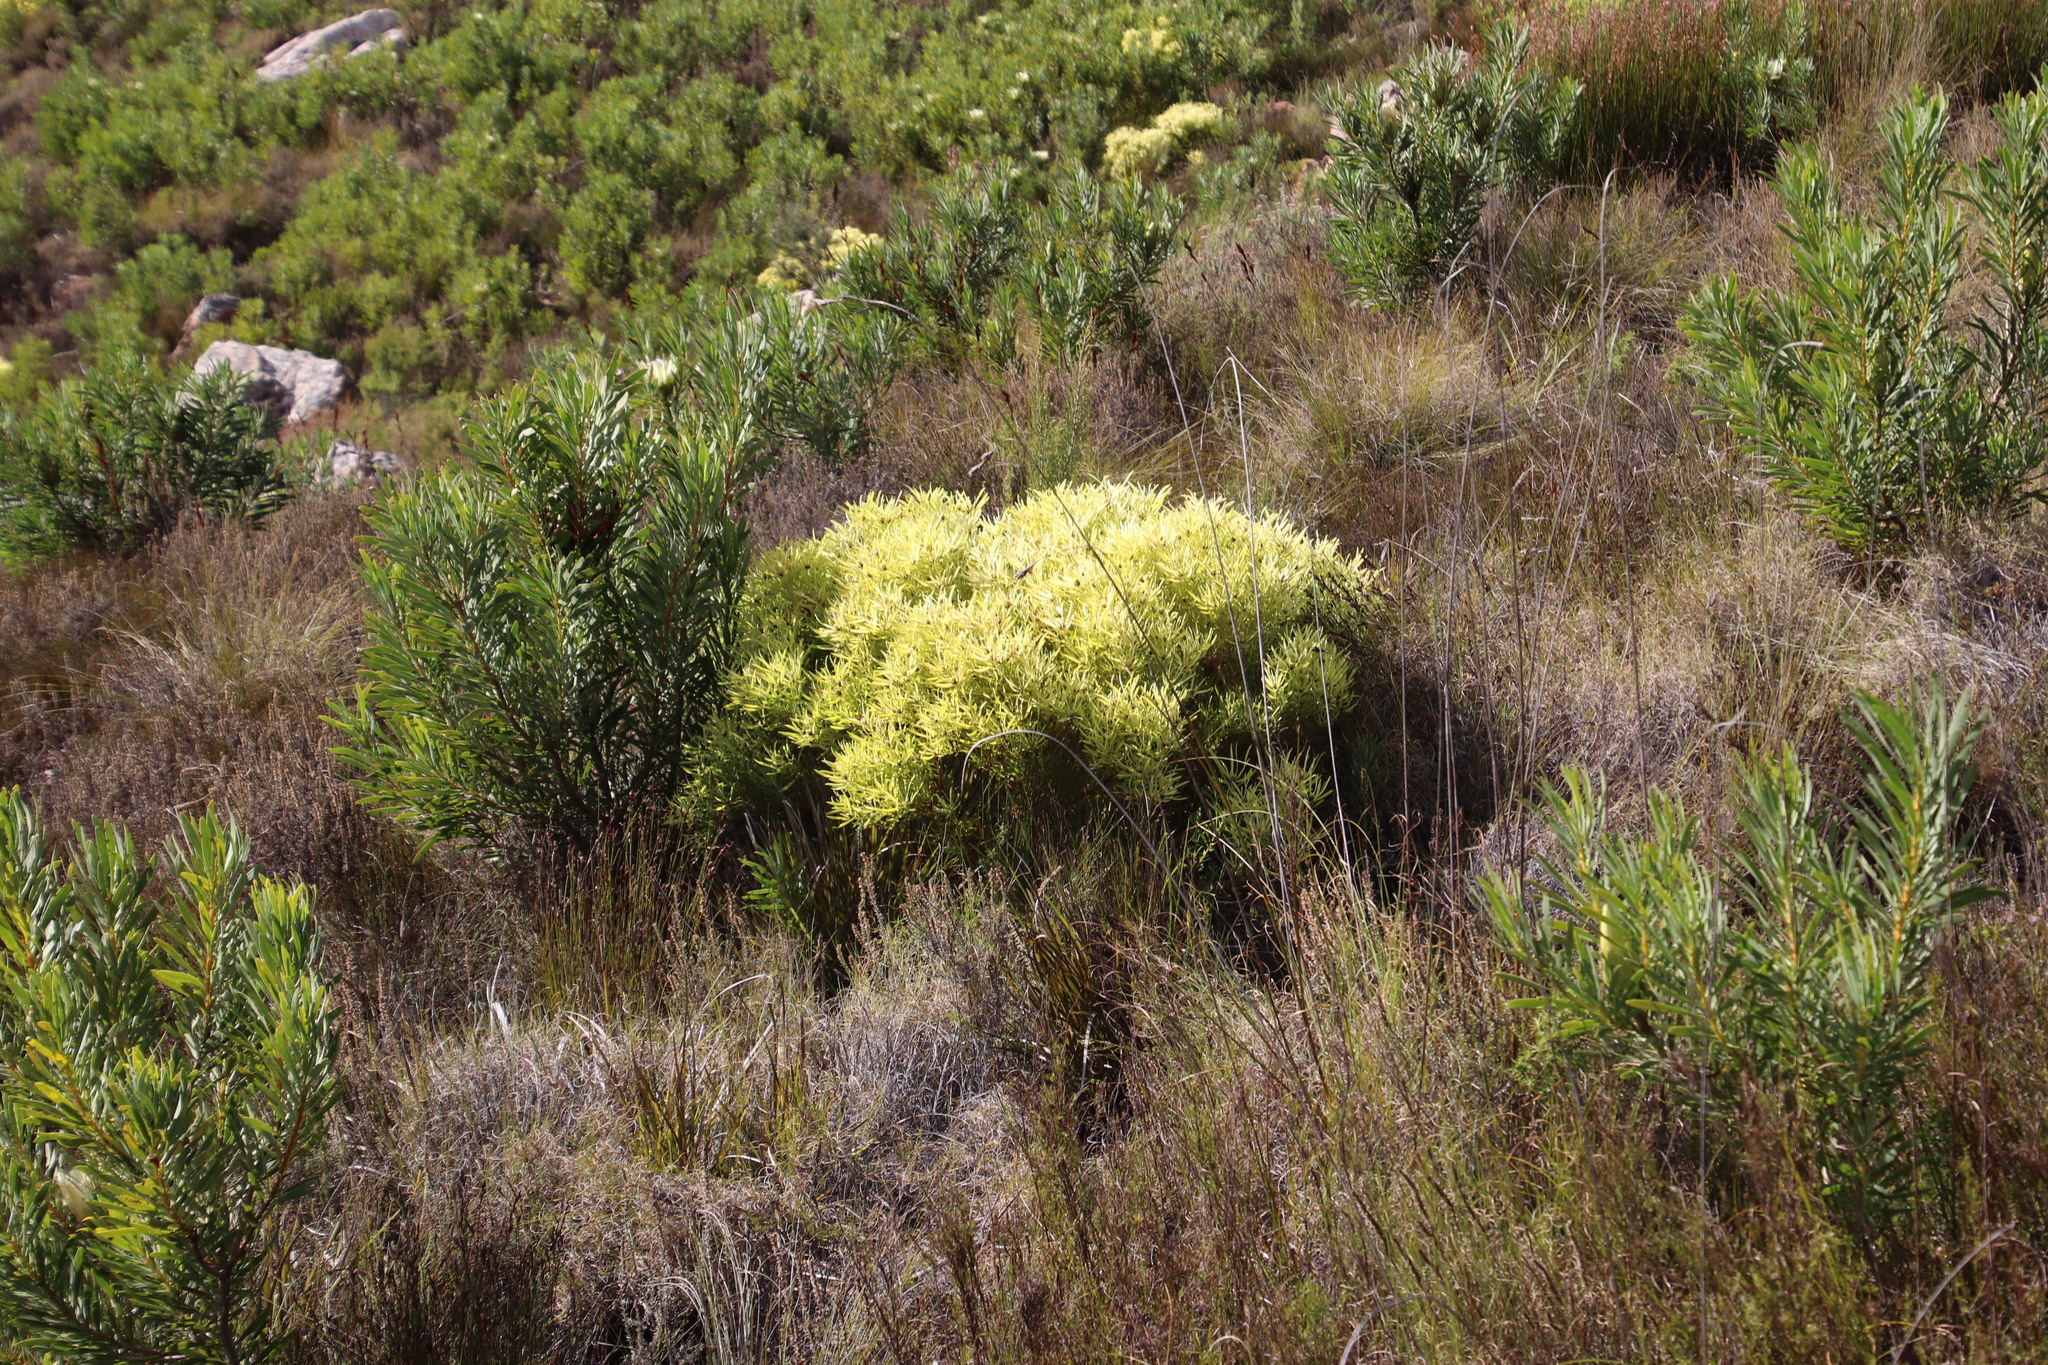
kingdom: Plantae
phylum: Tracheophyta
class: Magnoliopsida
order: Proteales
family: Proteaceae
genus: Leucadendron
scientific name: Leucadendron salignum
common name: Common sunshine conebush
